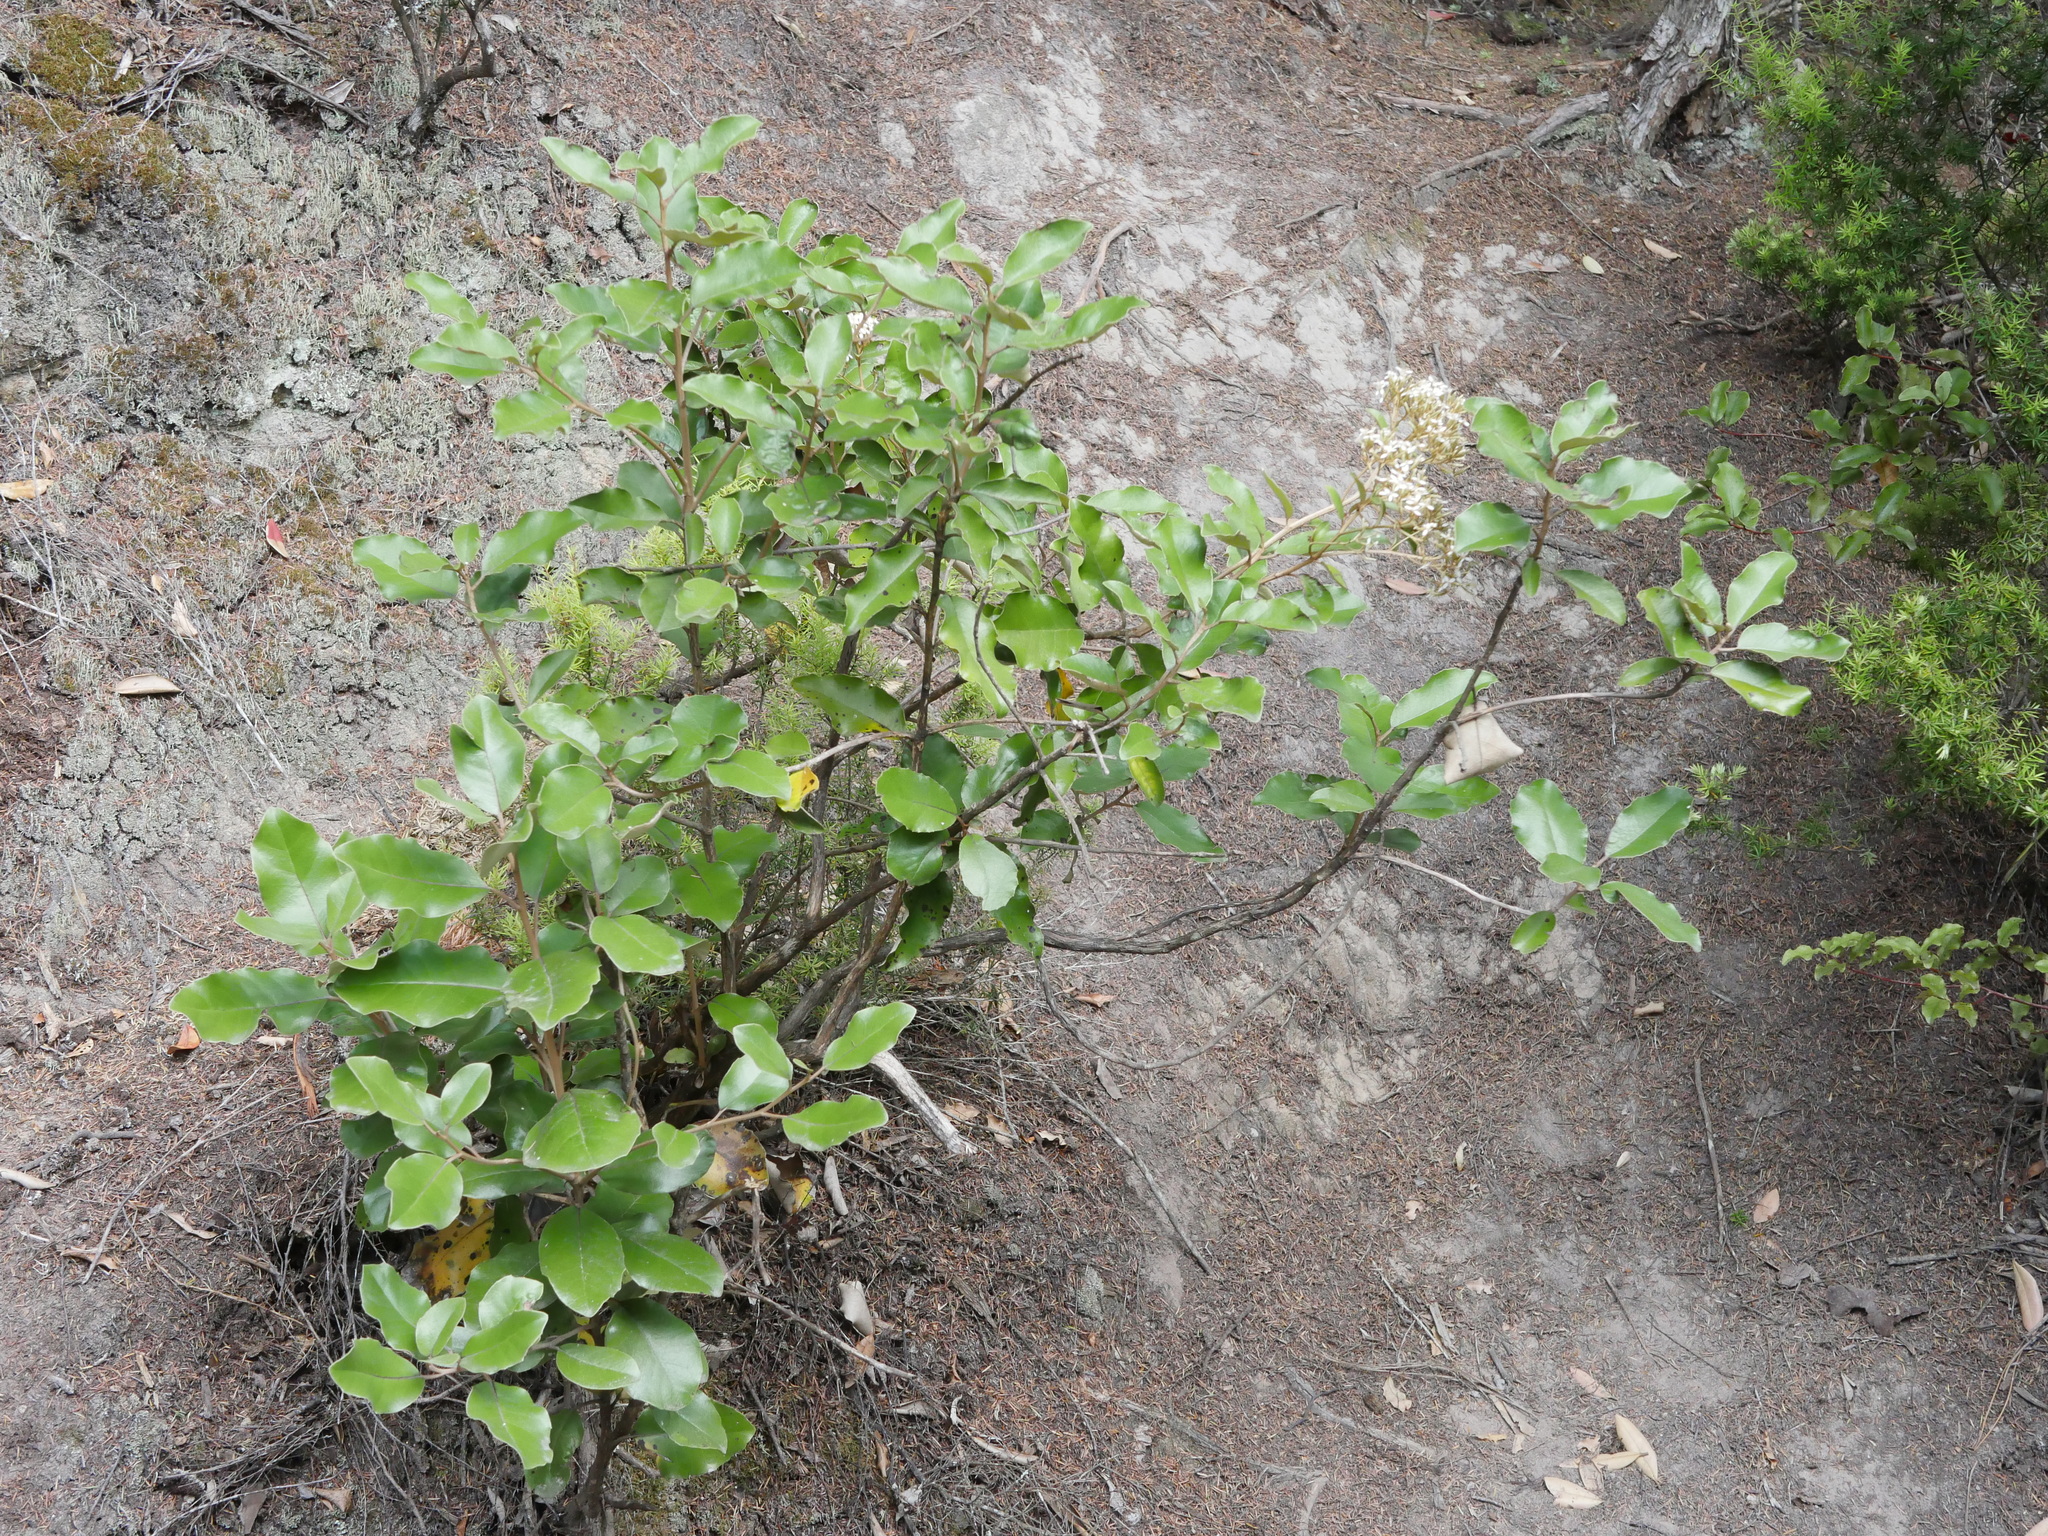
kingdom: Plantae
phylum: Tracheophyta
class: Magnoliopsida
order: Asterales
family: Asteraceae
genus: Olearia
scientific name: Olearia furfuracea
